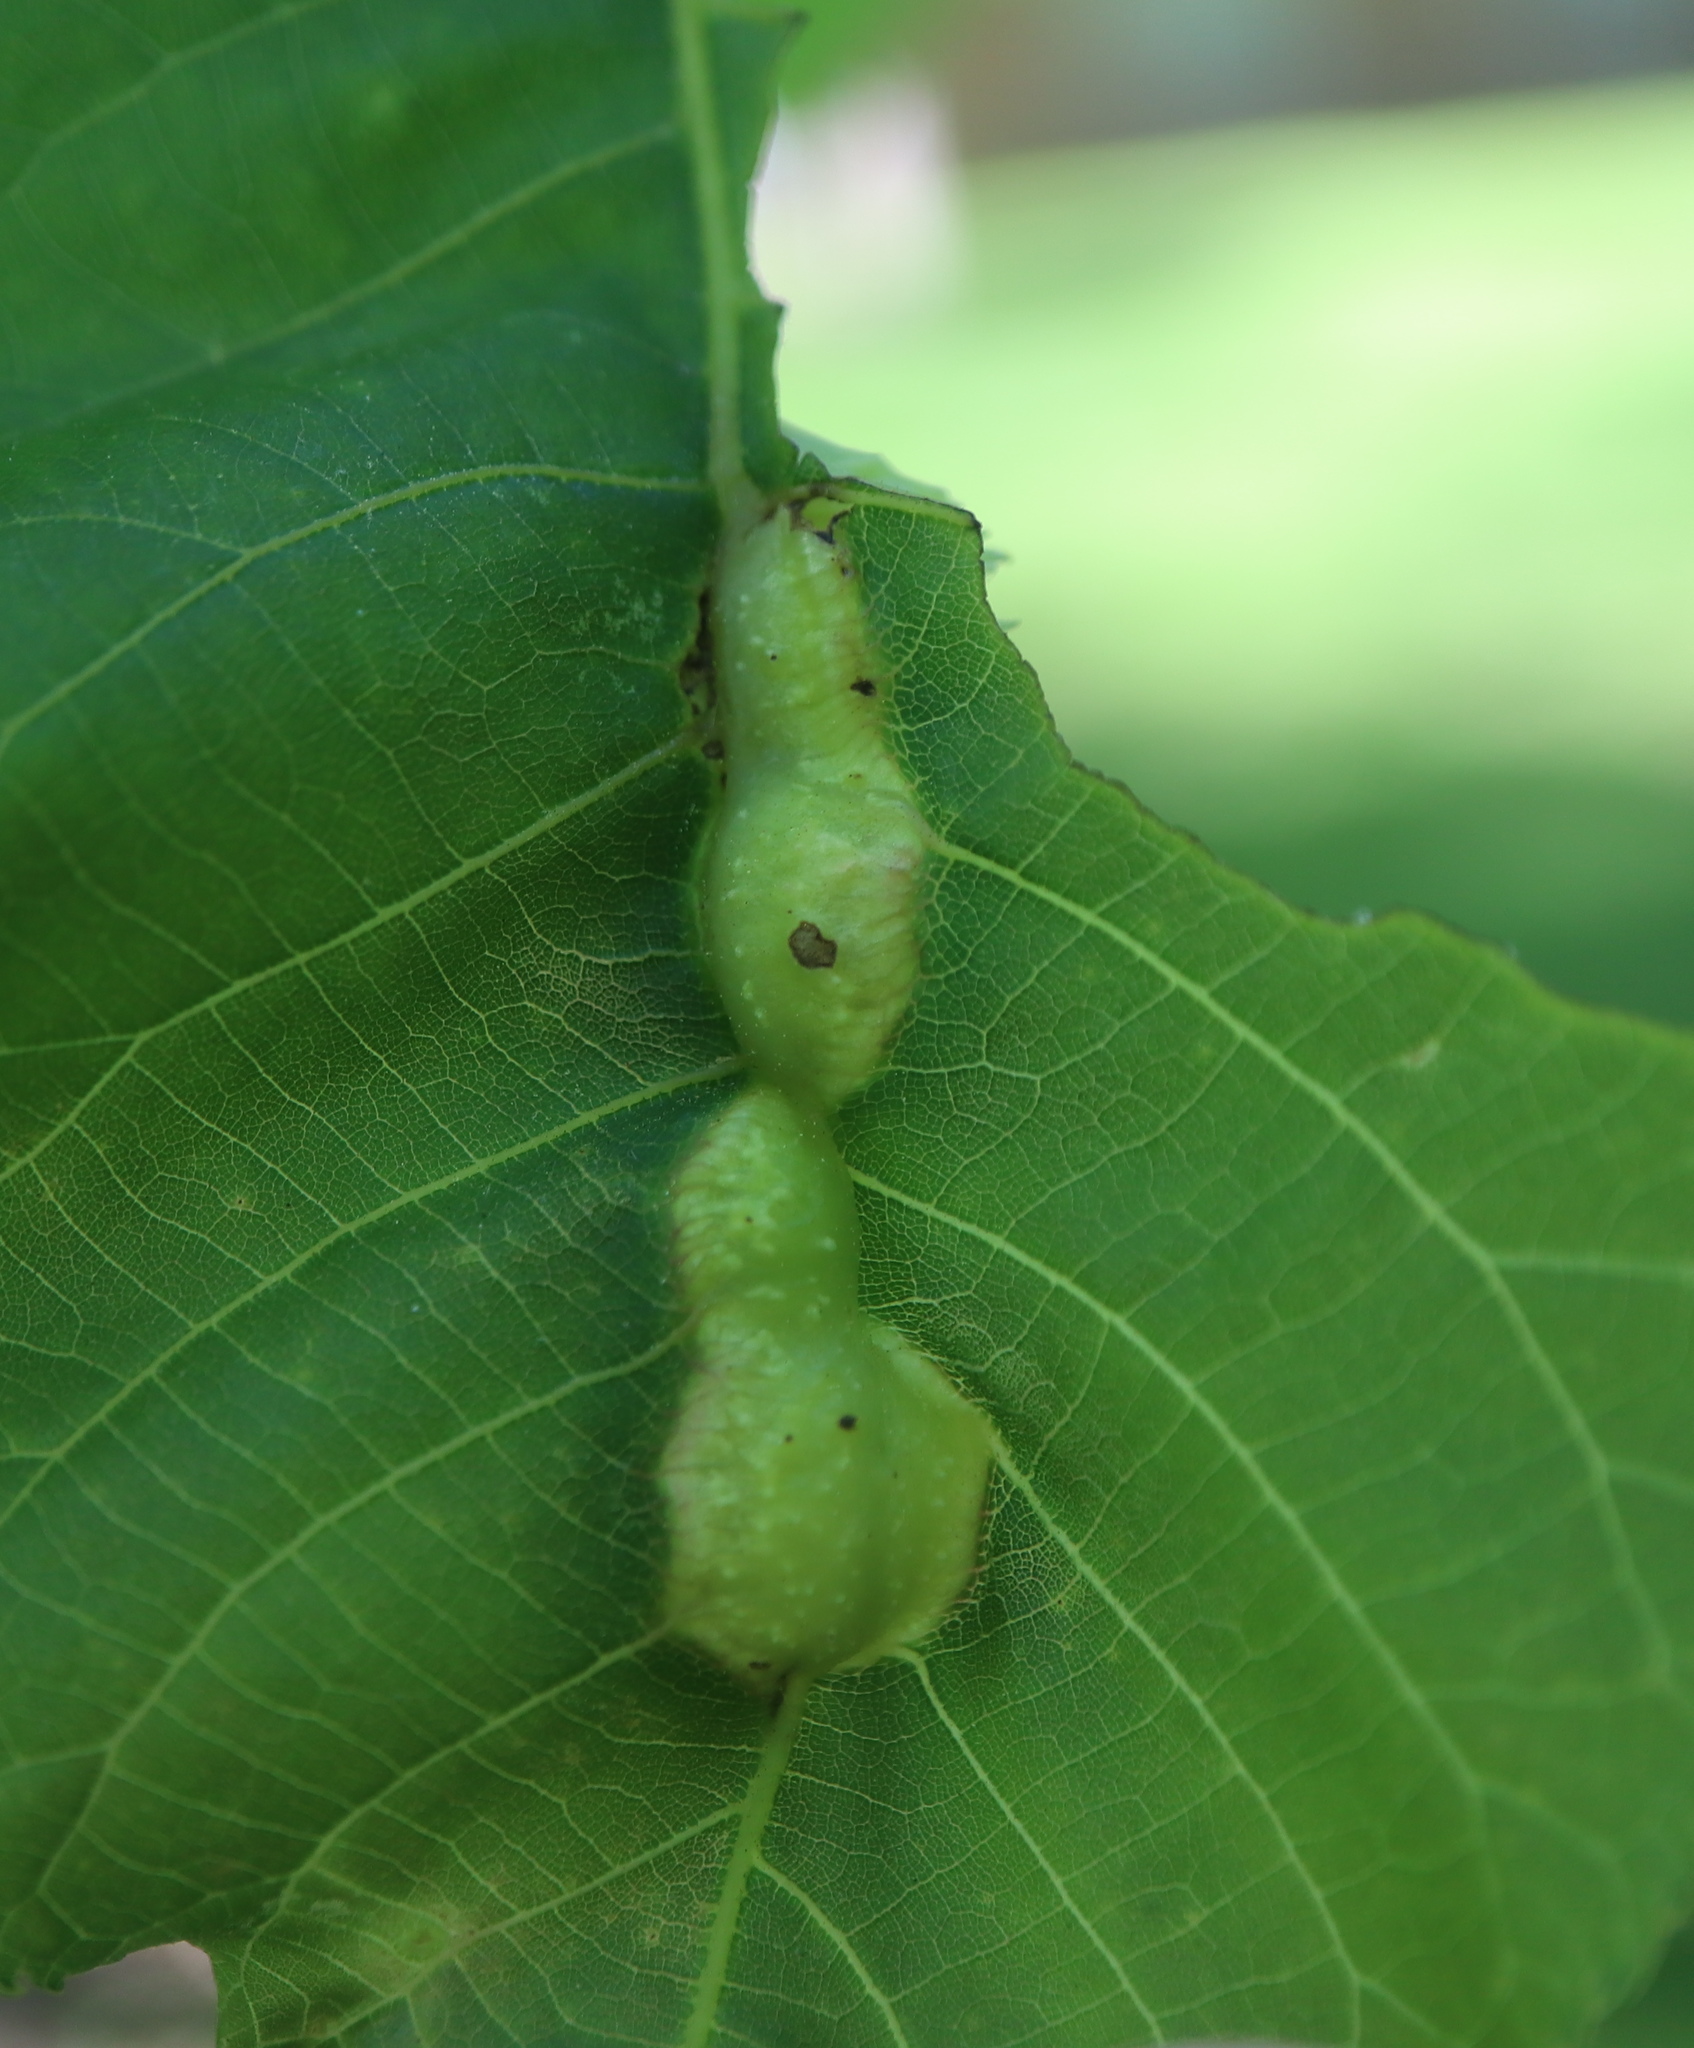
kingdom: Animalia
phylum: Arthropoda
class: Insecta
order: Hemiptera
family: Phylloxeridae
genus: Phylloxera
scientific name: Phylloxera spinosa
